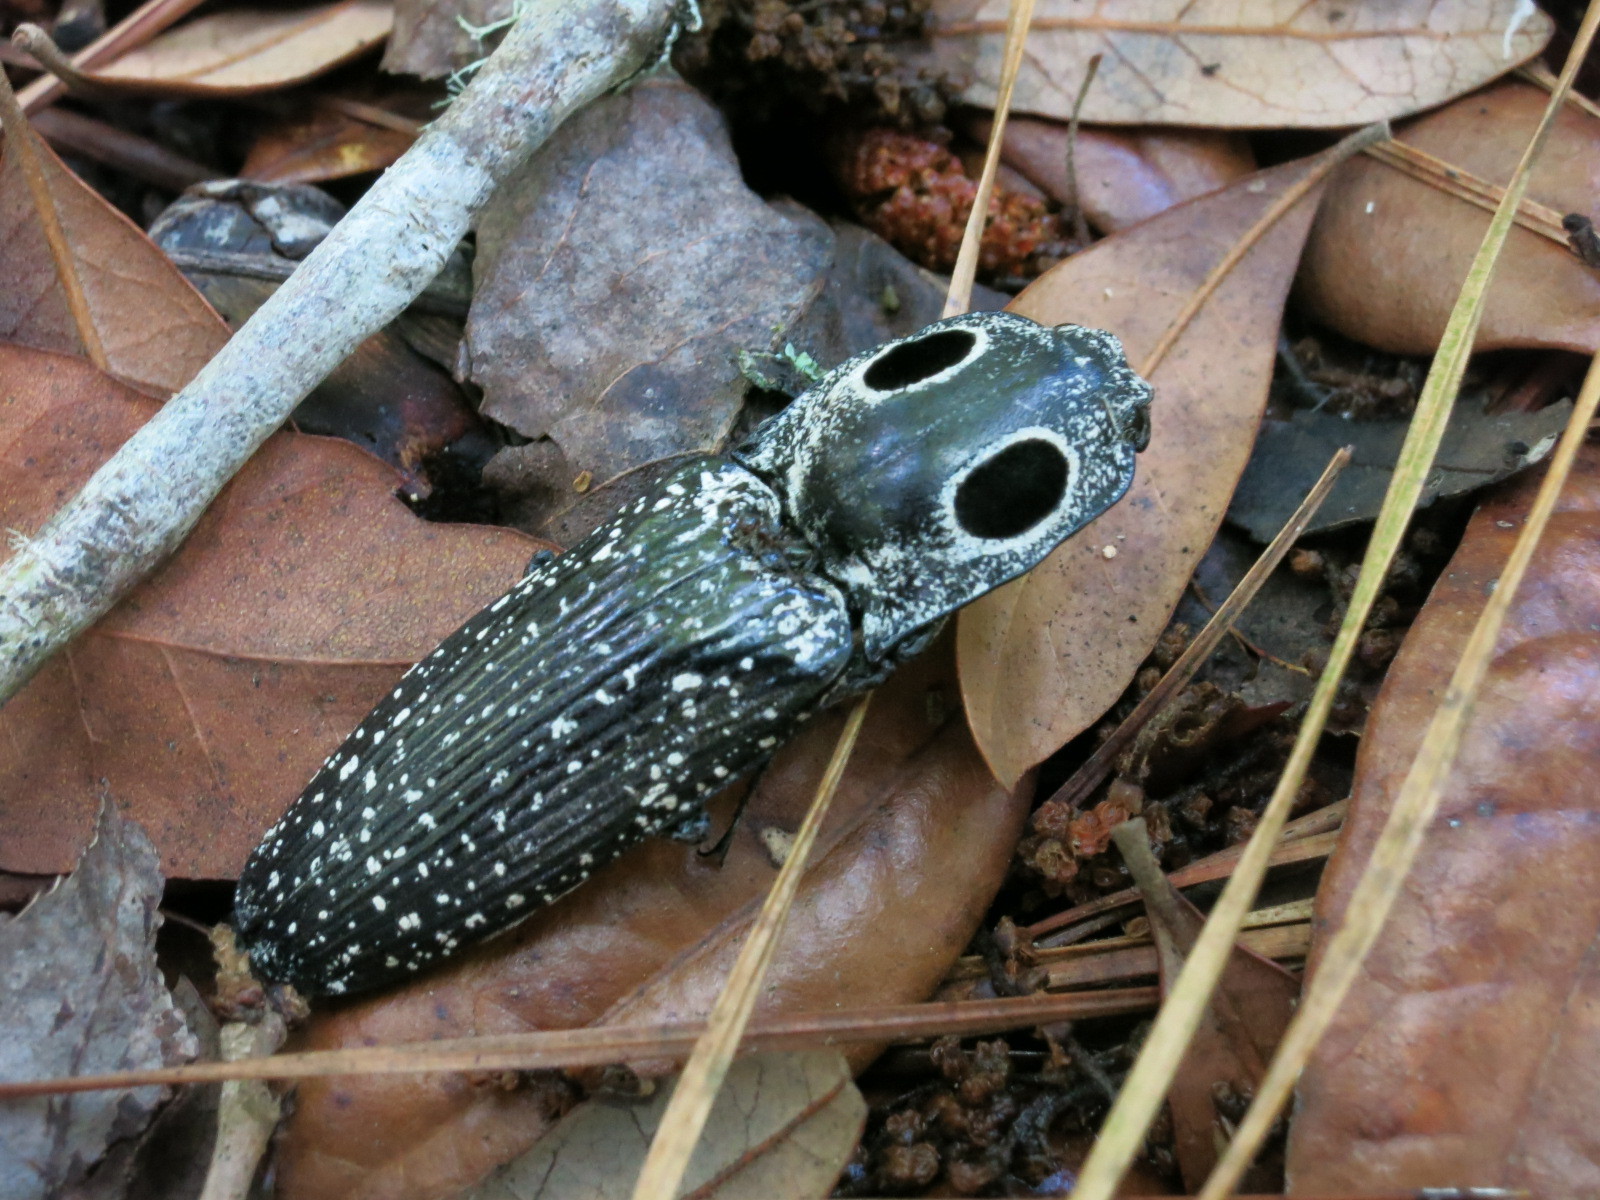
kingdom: Animalia
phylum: Arthropoda
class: Insecta
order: Coleoptera
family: Elateridae
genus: Alaus
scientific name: Alaus oculatus
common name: Eastern eyed click beetle
